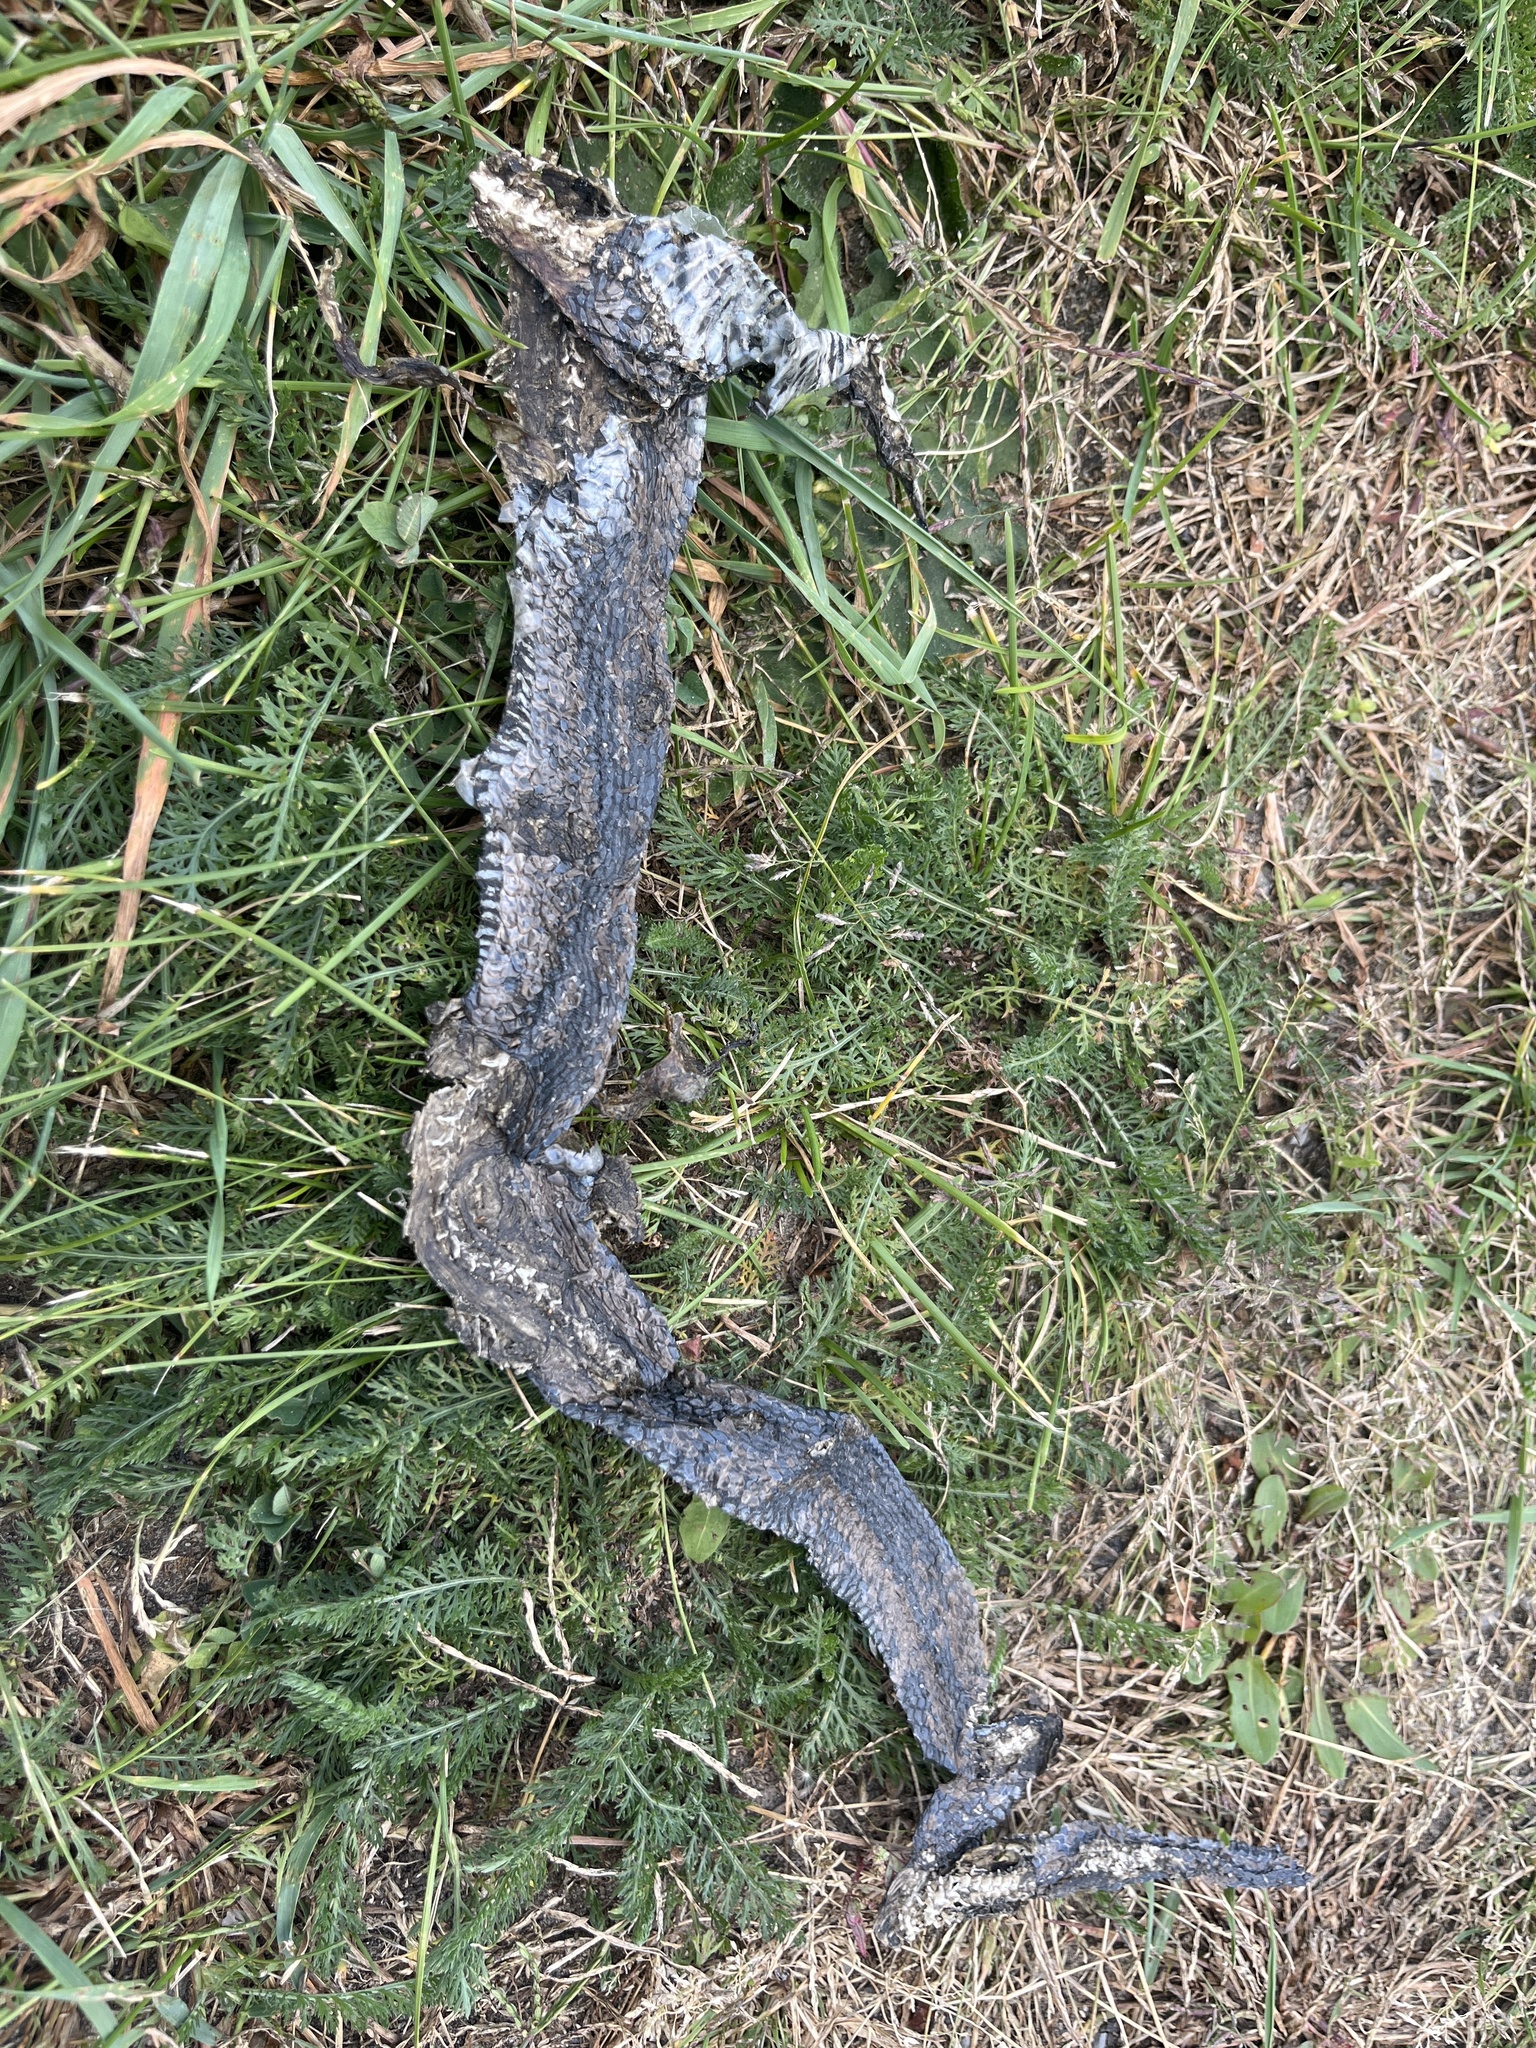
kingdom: Animalia
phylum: Chordata
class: Squamata
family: Colubridae
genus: Natrix
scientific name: Natrix natrix
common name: Grass snake
